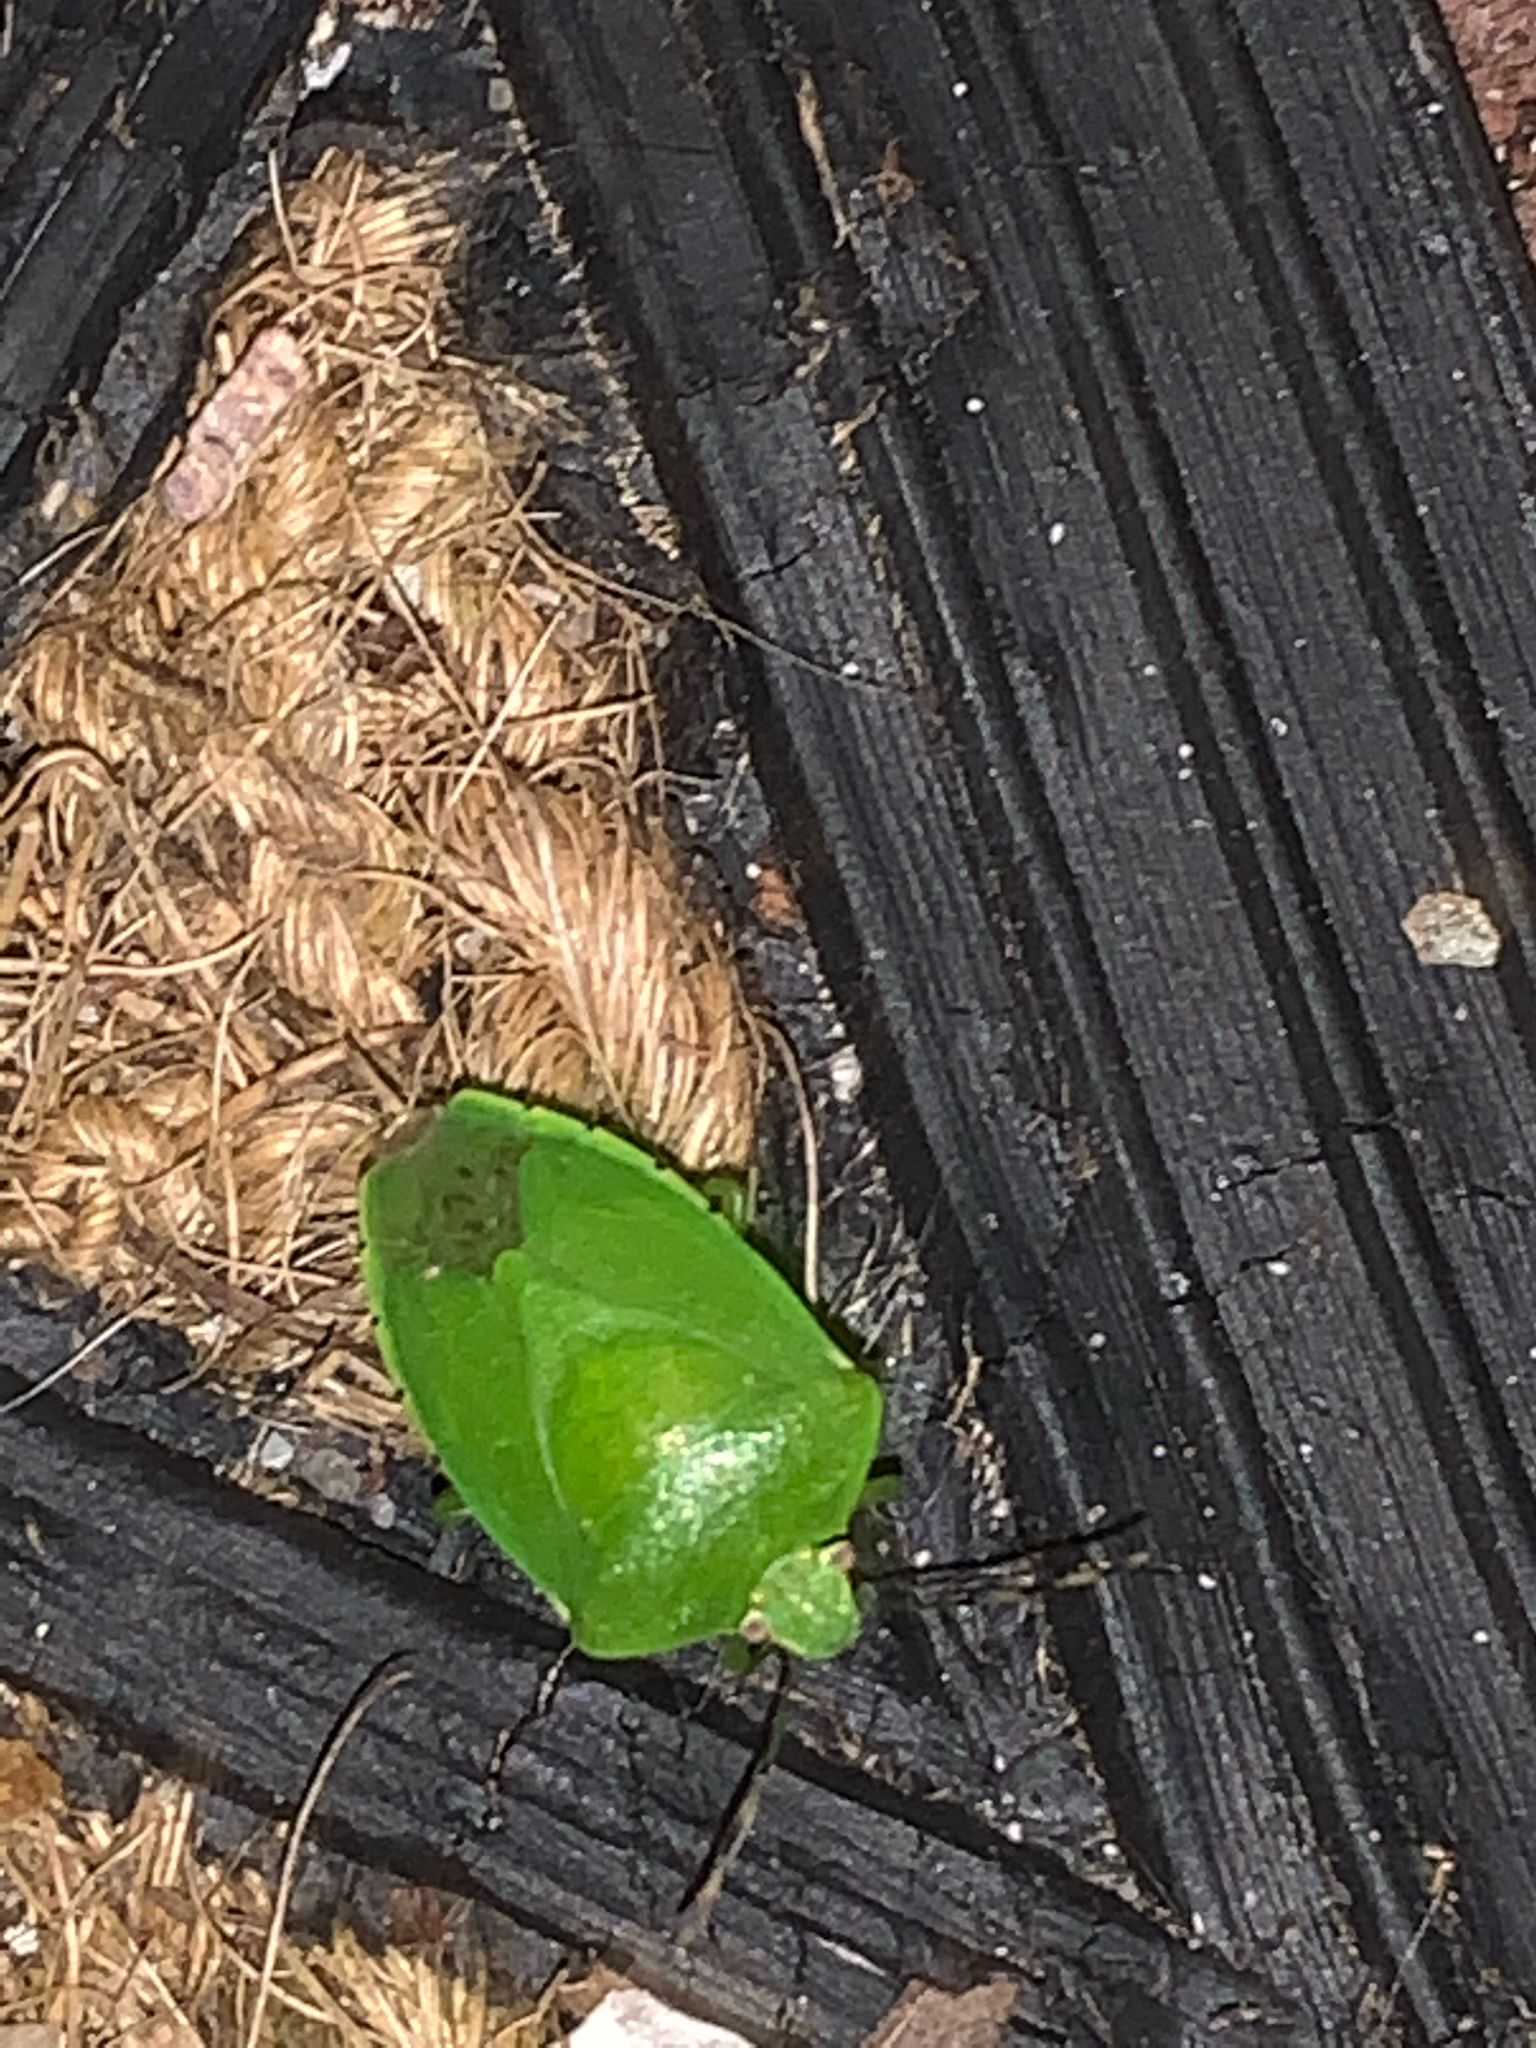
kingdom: Animalia
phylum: Arthropoda
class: Insecta
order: Hemiptera
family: Pentatomidae
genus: Chinavia
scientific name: Chinavia hilaris
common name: Green stink bug
